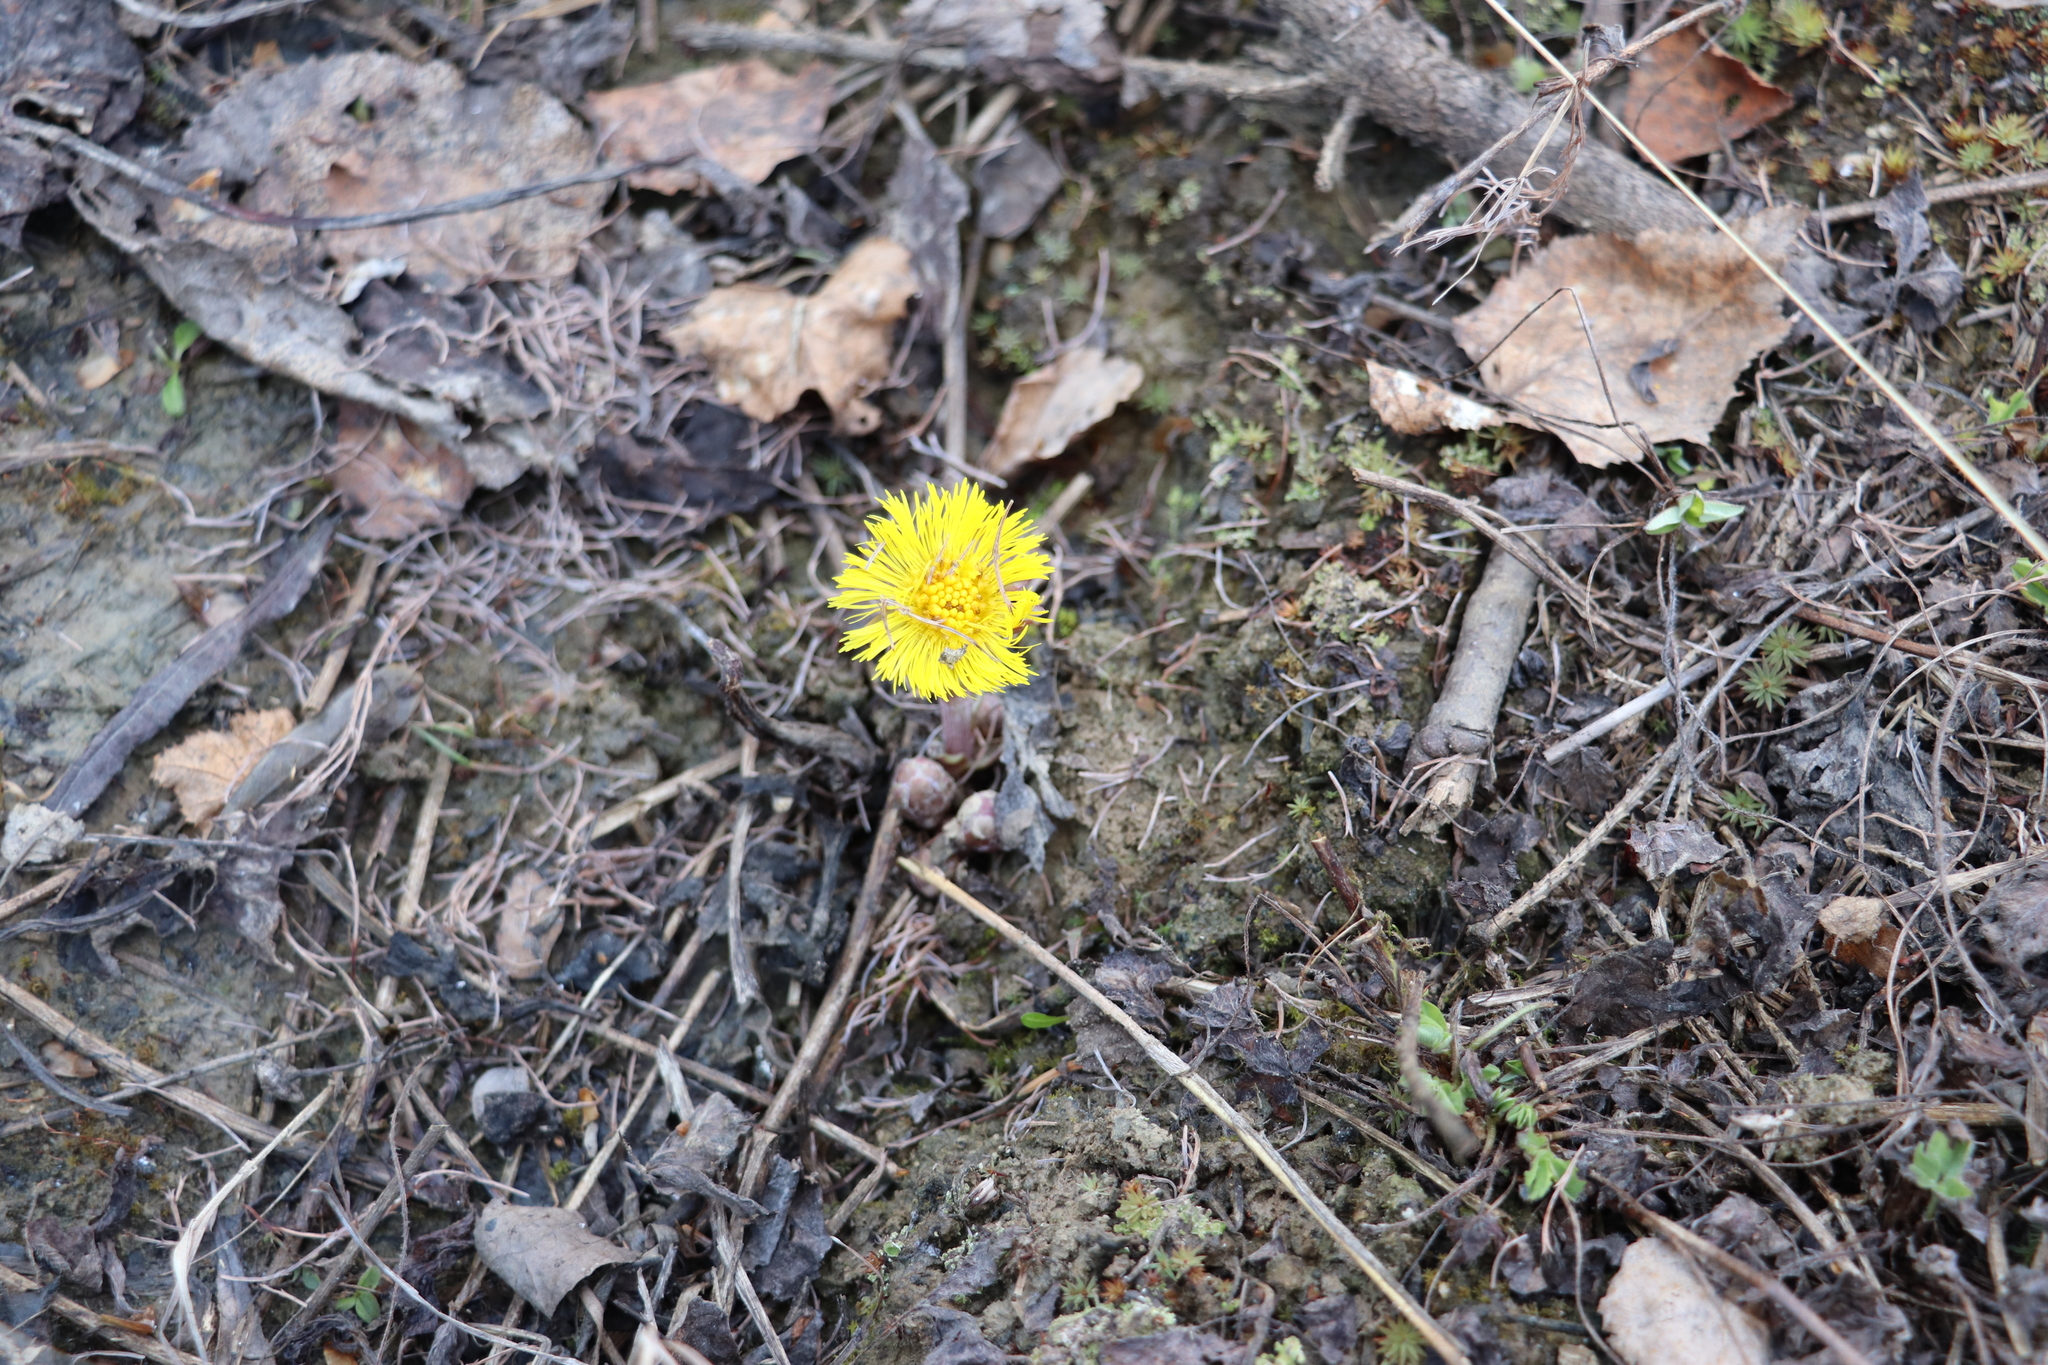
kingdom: Plantae
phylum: Tracheophyta
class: Magnoliopsida
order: Asterales
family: Asteraceae
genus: Tussilago
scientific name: Tussilago farfara
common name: Coltsfoot
